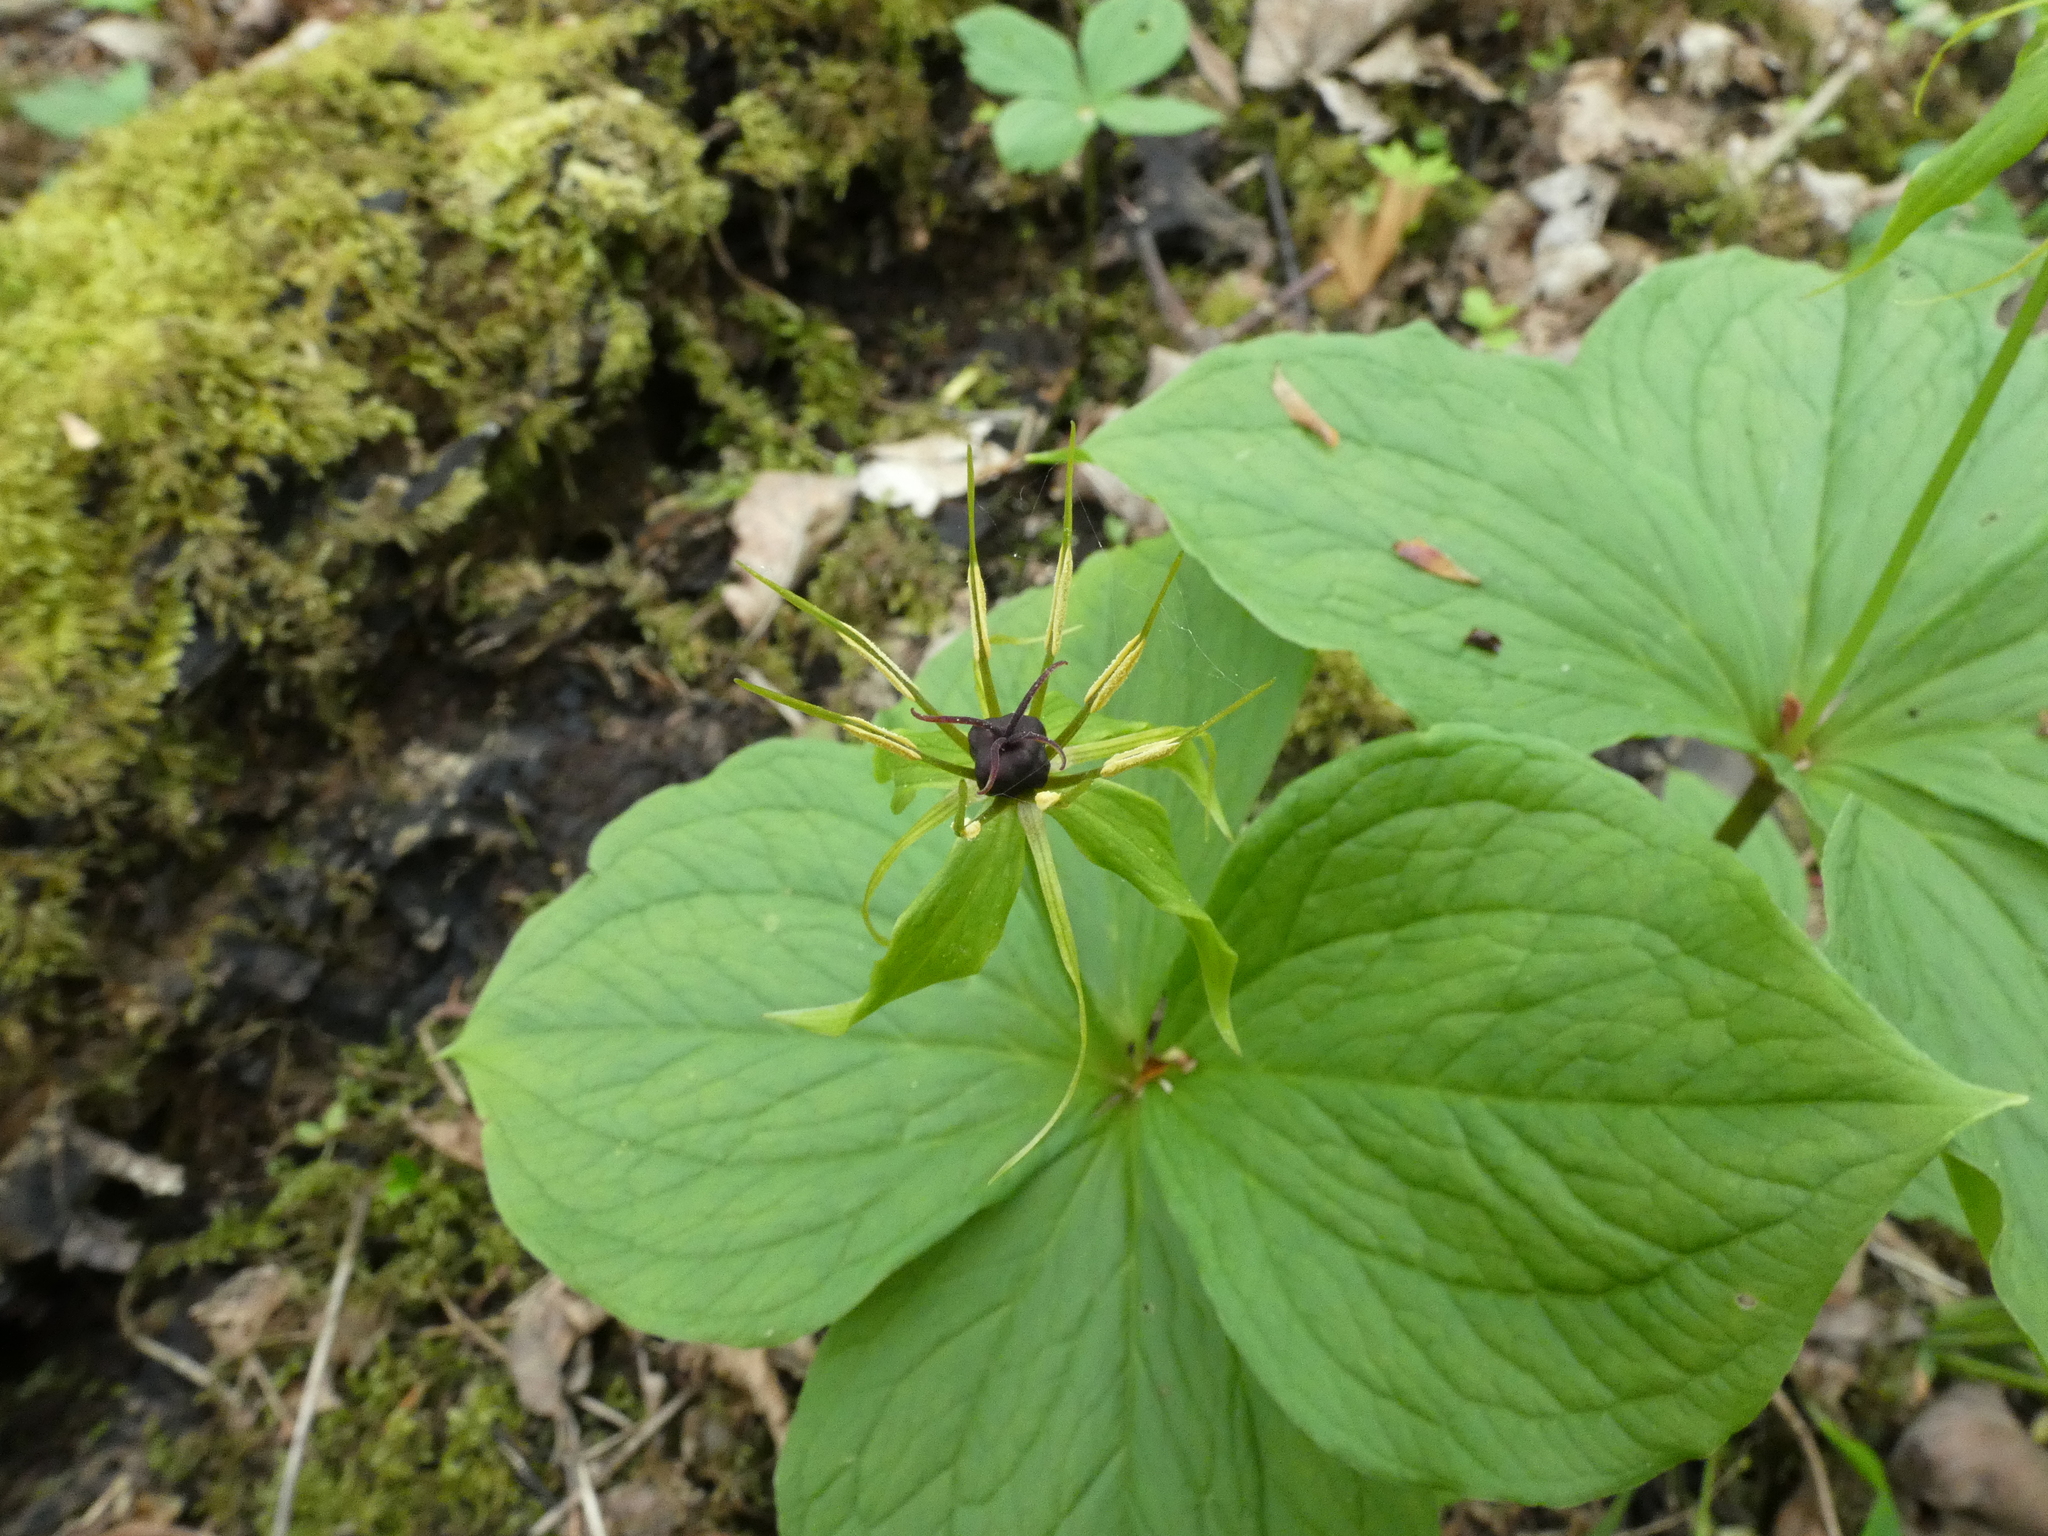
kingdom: Plantae
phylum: Tracheophyta
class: Liliopsida
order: Liliales
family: Melanthiaceae
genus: Paris
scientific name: Paris quadrifolia
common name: Herb-paris
